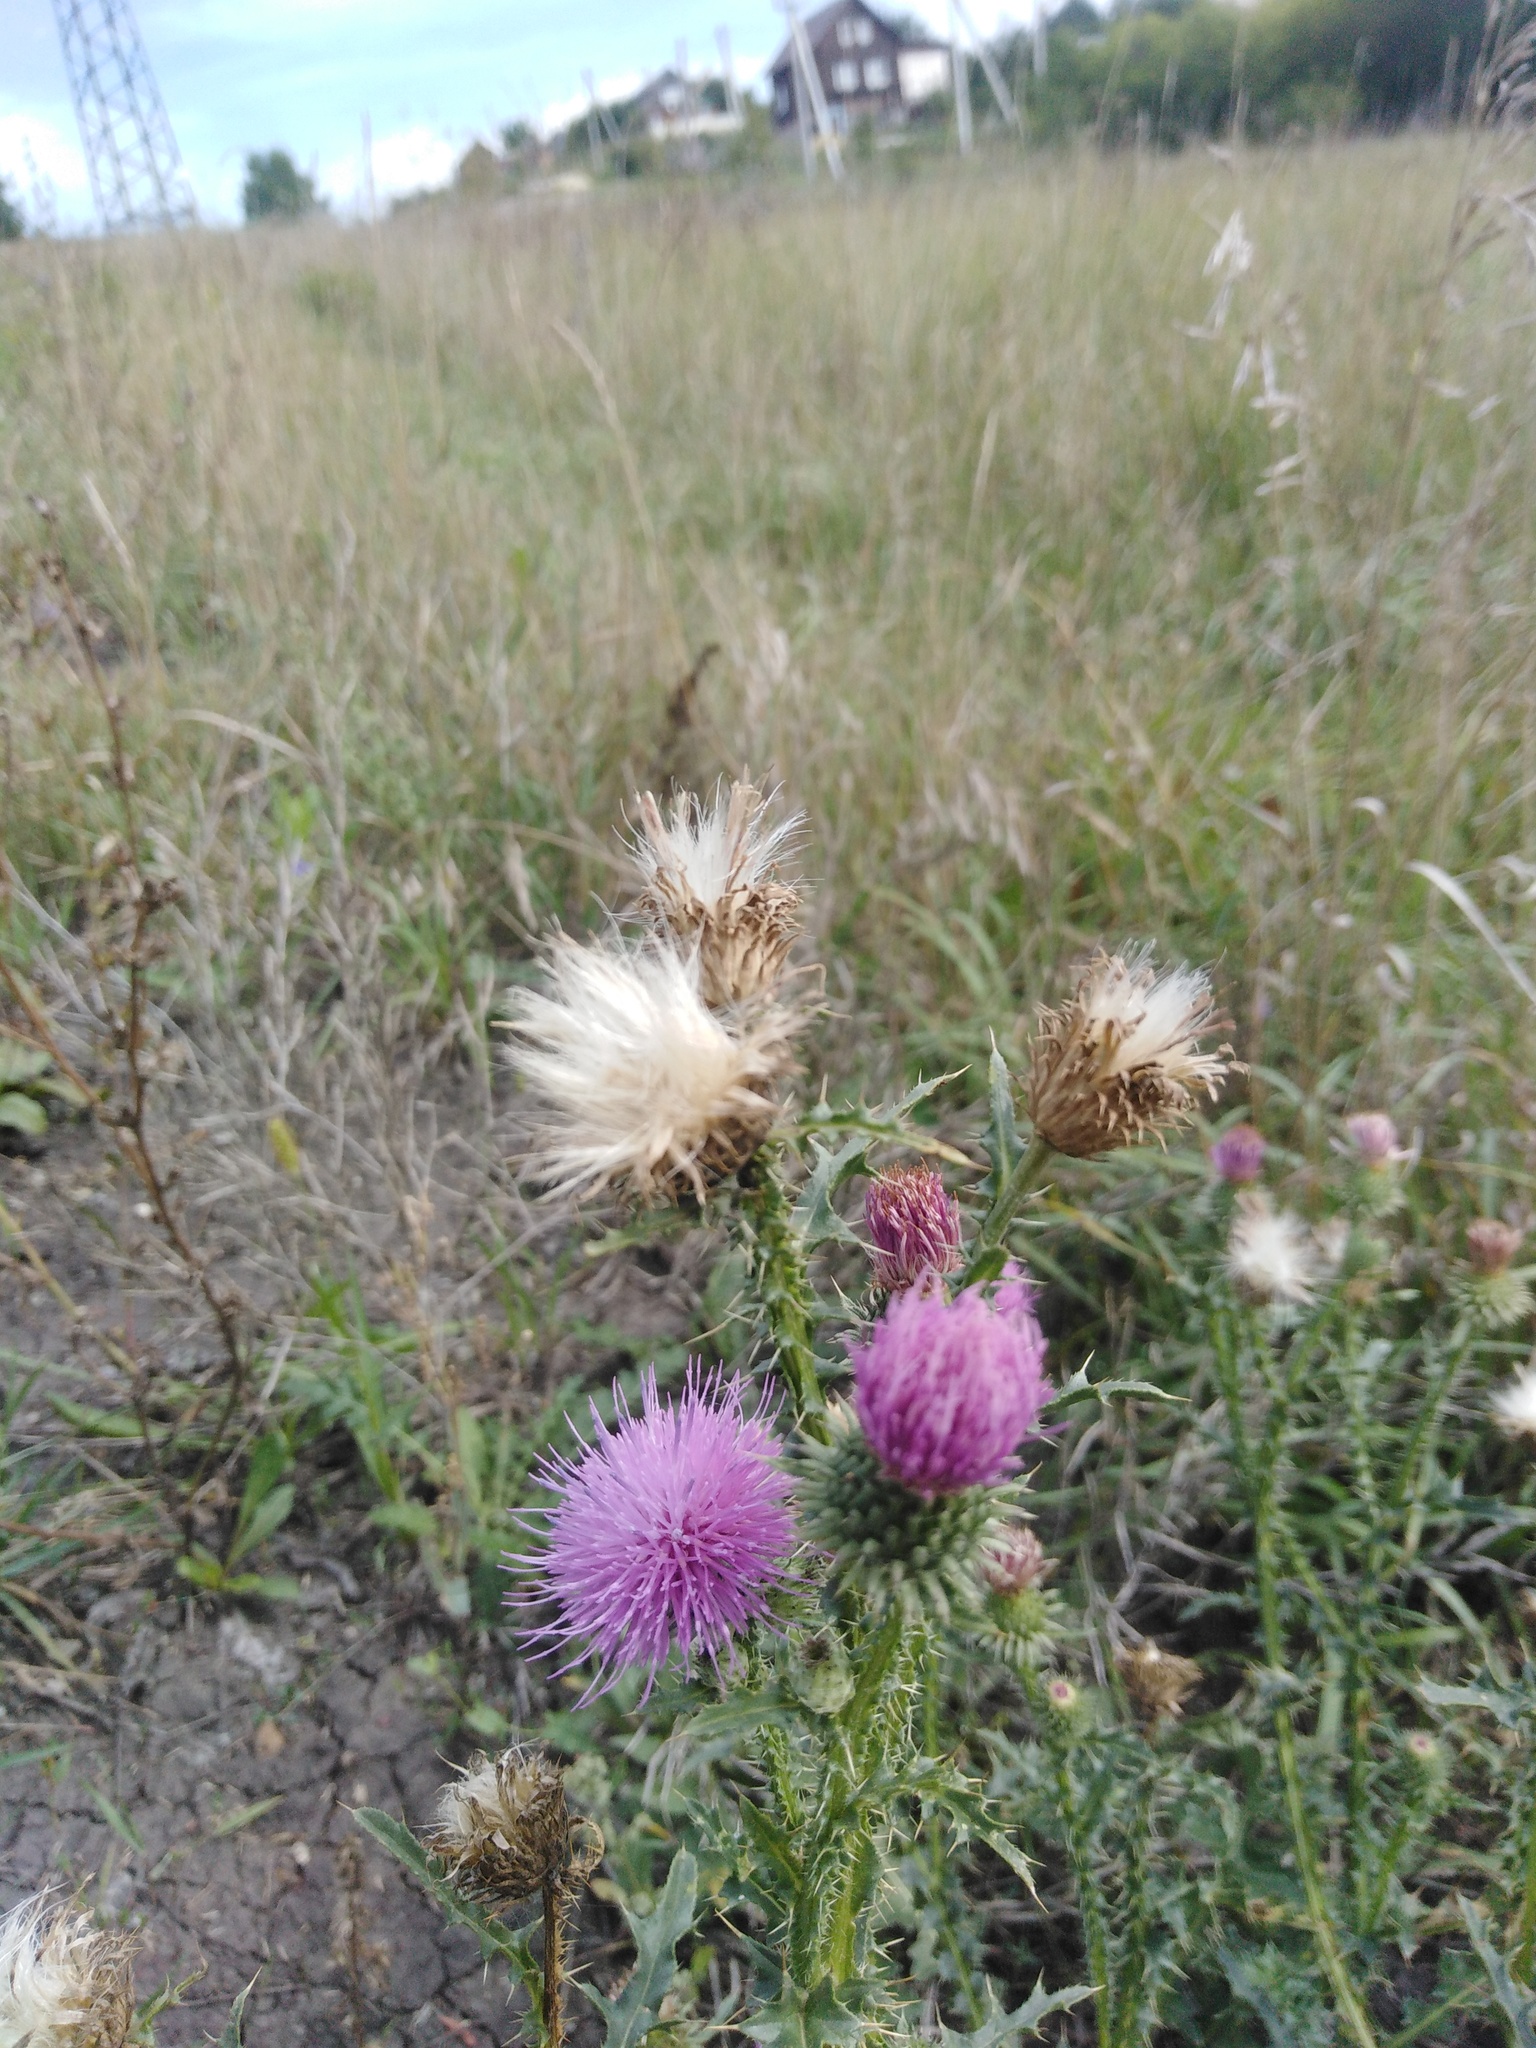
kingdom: Plantae
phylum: Tracheophyta
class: Magnoliopsida
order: Asterales
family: Asteraceae
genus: Carduus
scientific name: Carduus acanthoides
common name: Plumeless thistle
